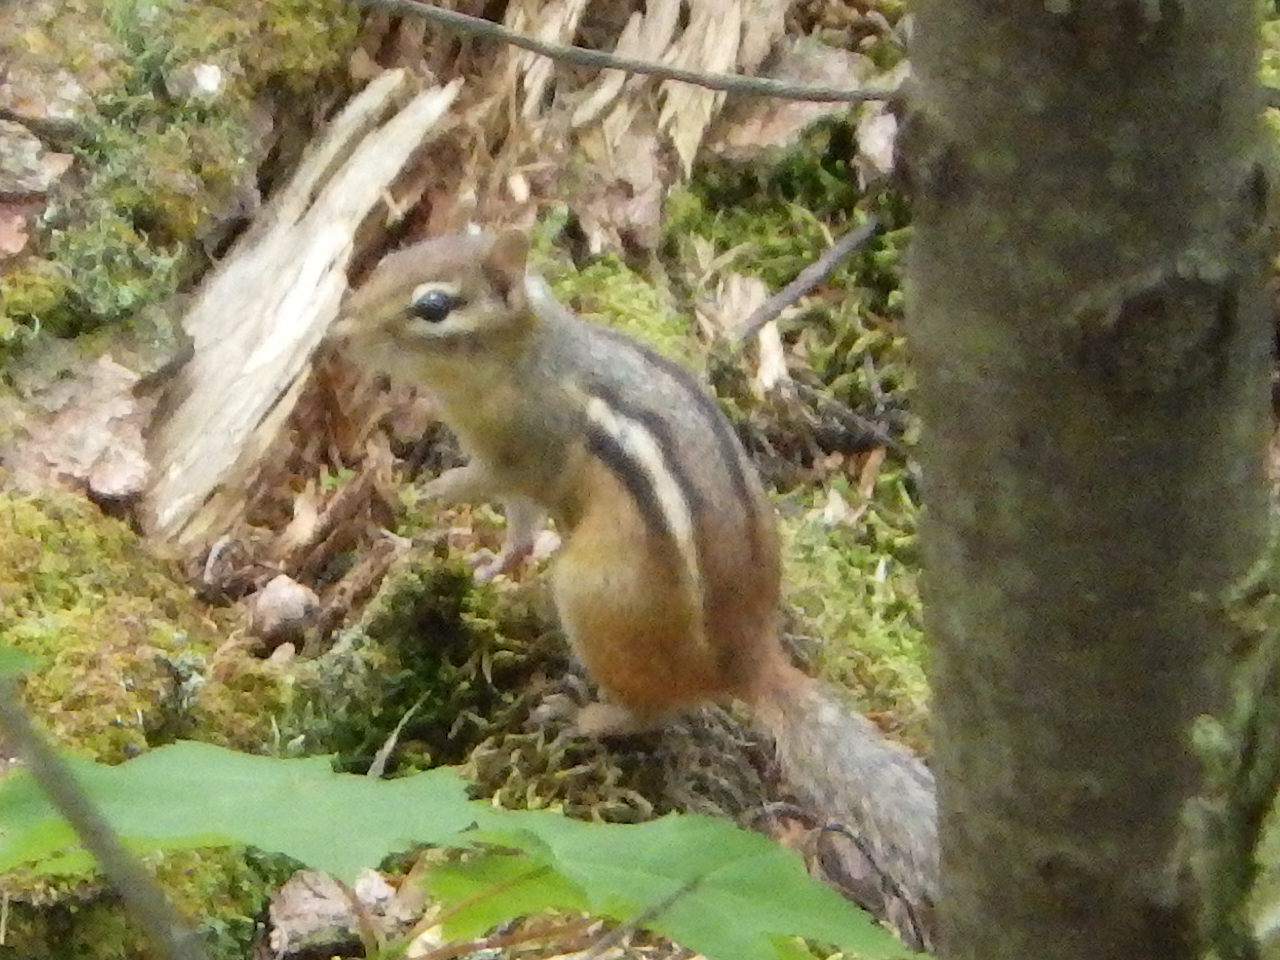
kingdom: Animalia
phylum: Chordata
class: Mammalia
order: Rodentia
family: Sciuridae
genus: Tamias
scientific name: Tamias striatus
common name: Eastern chipmunk
